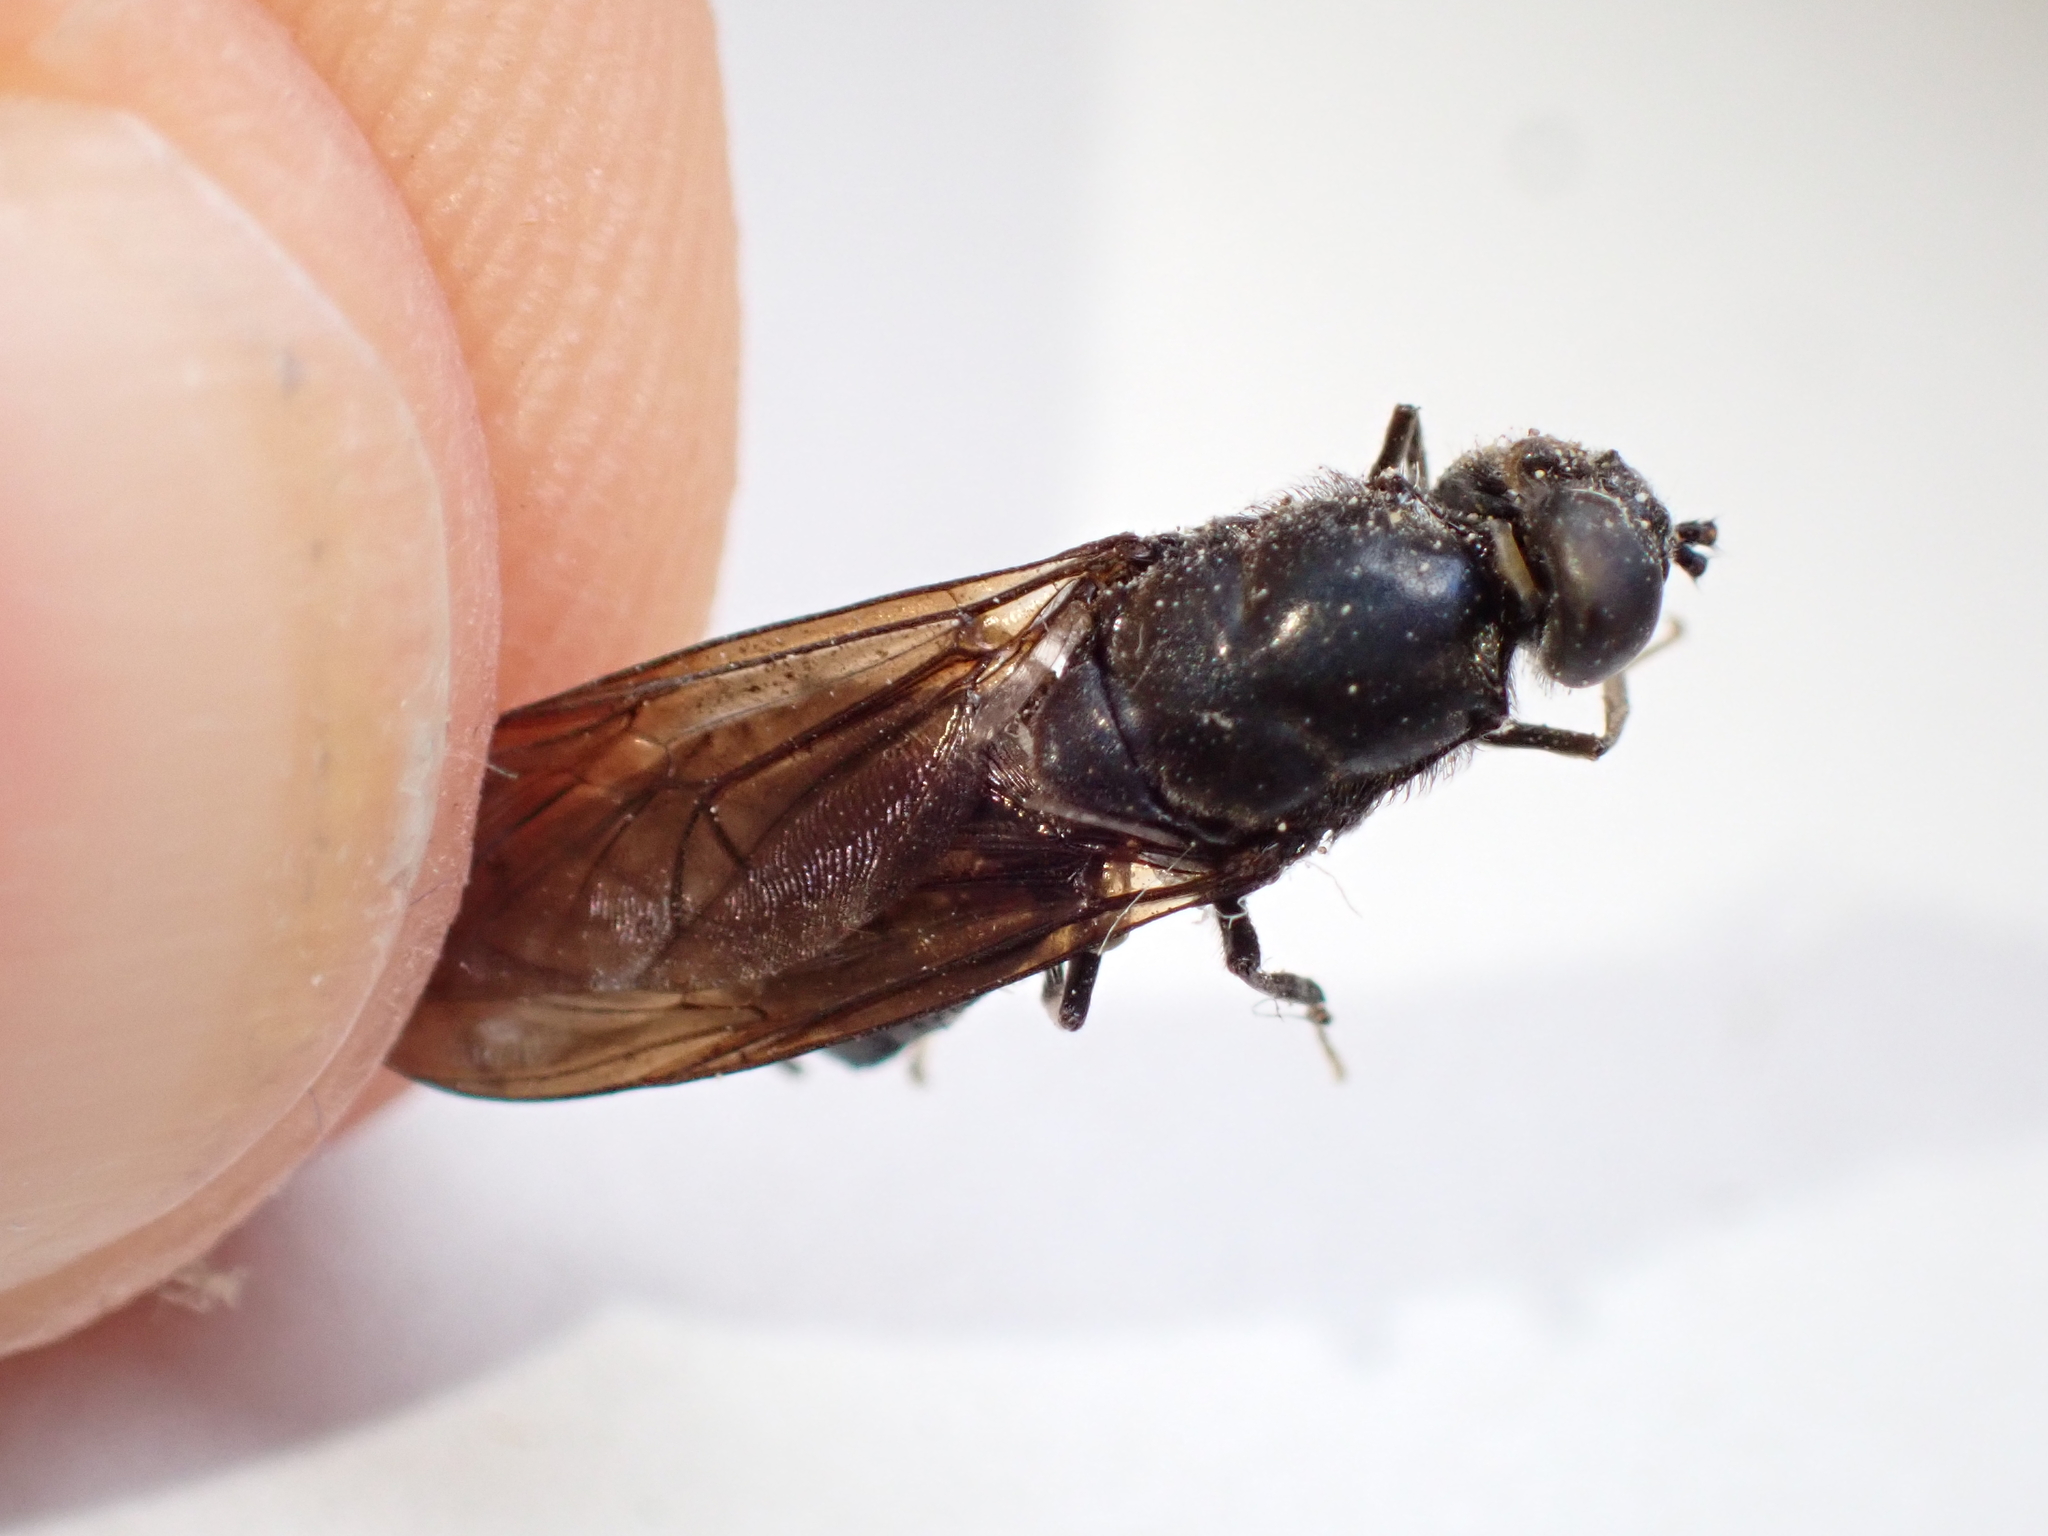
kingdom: Animalia
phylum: Arthropoda
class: Insecta
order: Diptera
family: Stratiomyidae
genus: Hermetia
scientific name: Hermetia illucens
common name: Black soldier fly
